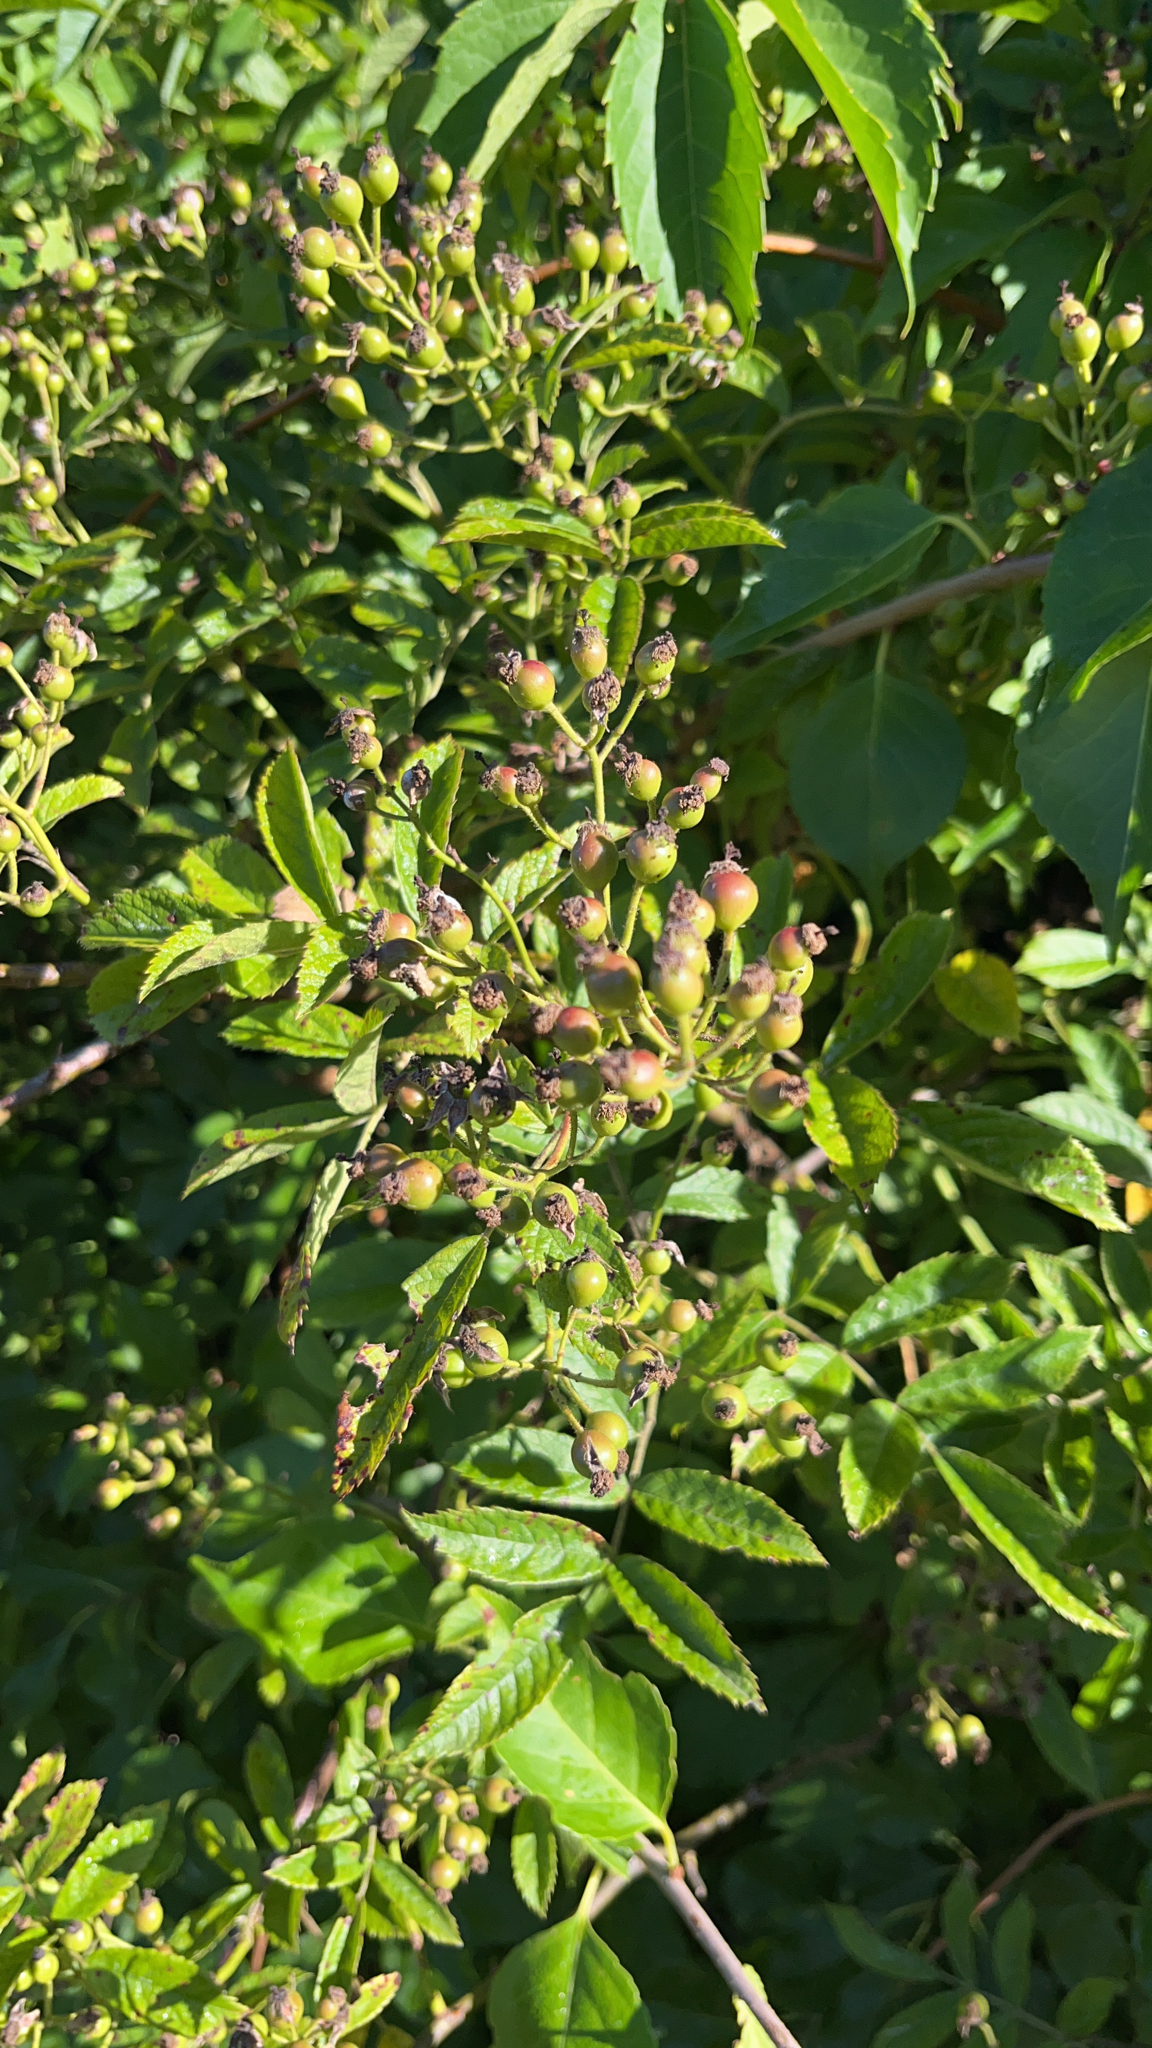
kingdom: Plantae
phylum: Tracheophyta
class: Magnoliopsida
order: Rosales
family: Rosaceae
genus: Rosa
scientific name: Rosa multiflora
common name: Multiflora rose
